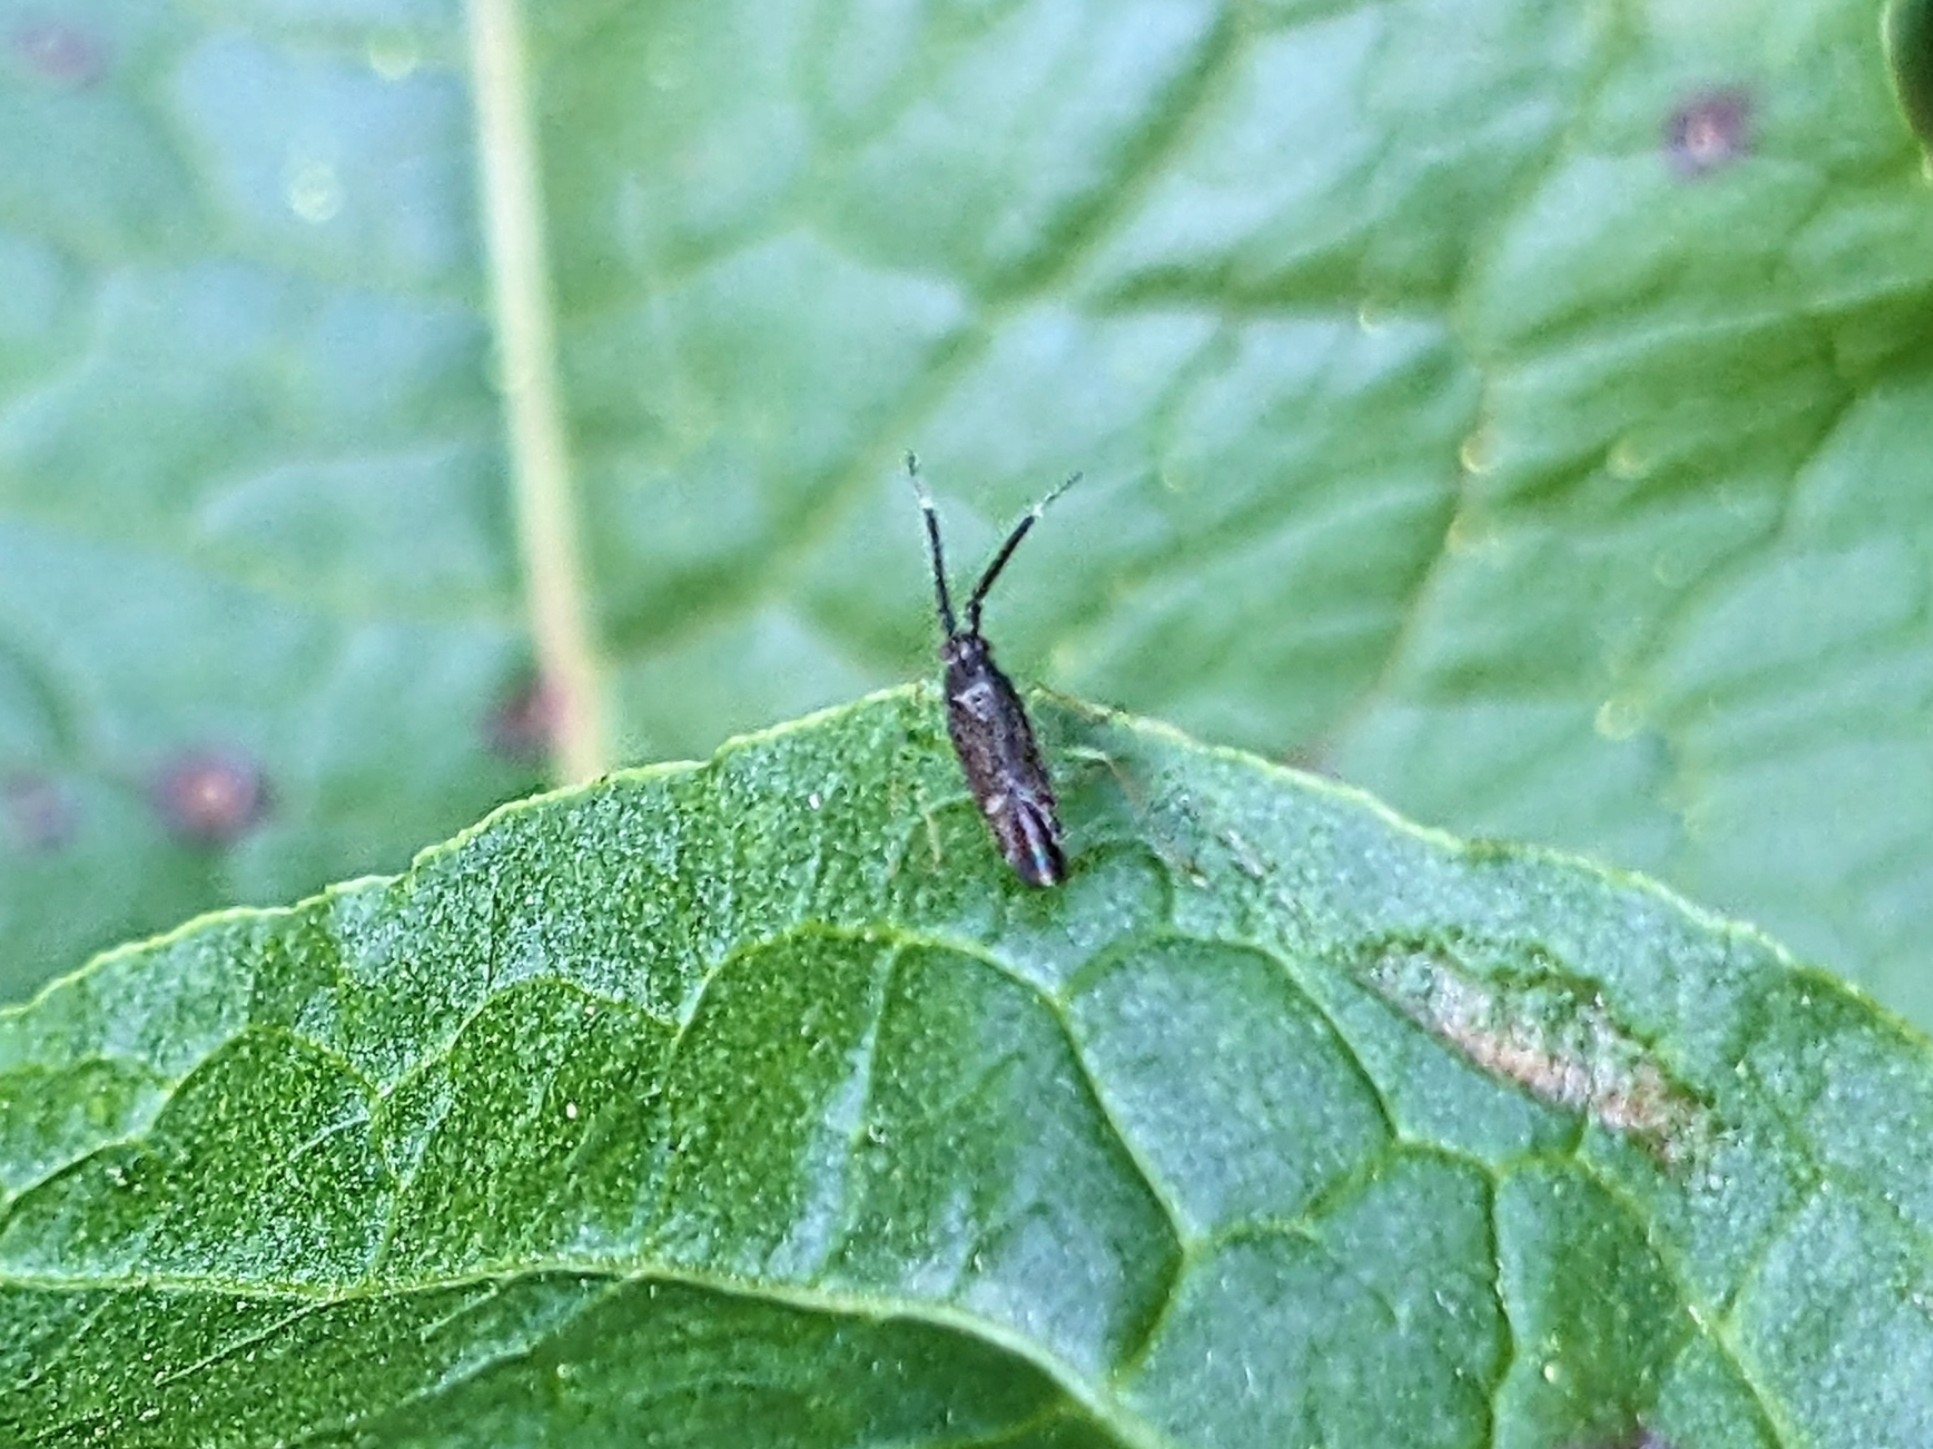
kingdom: Animalia
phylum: Arthropoda
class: Insecta
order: Hemiptera
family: Miridae
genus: Heterotoma
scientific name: Heterotoma planicornis
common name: Plant bug
